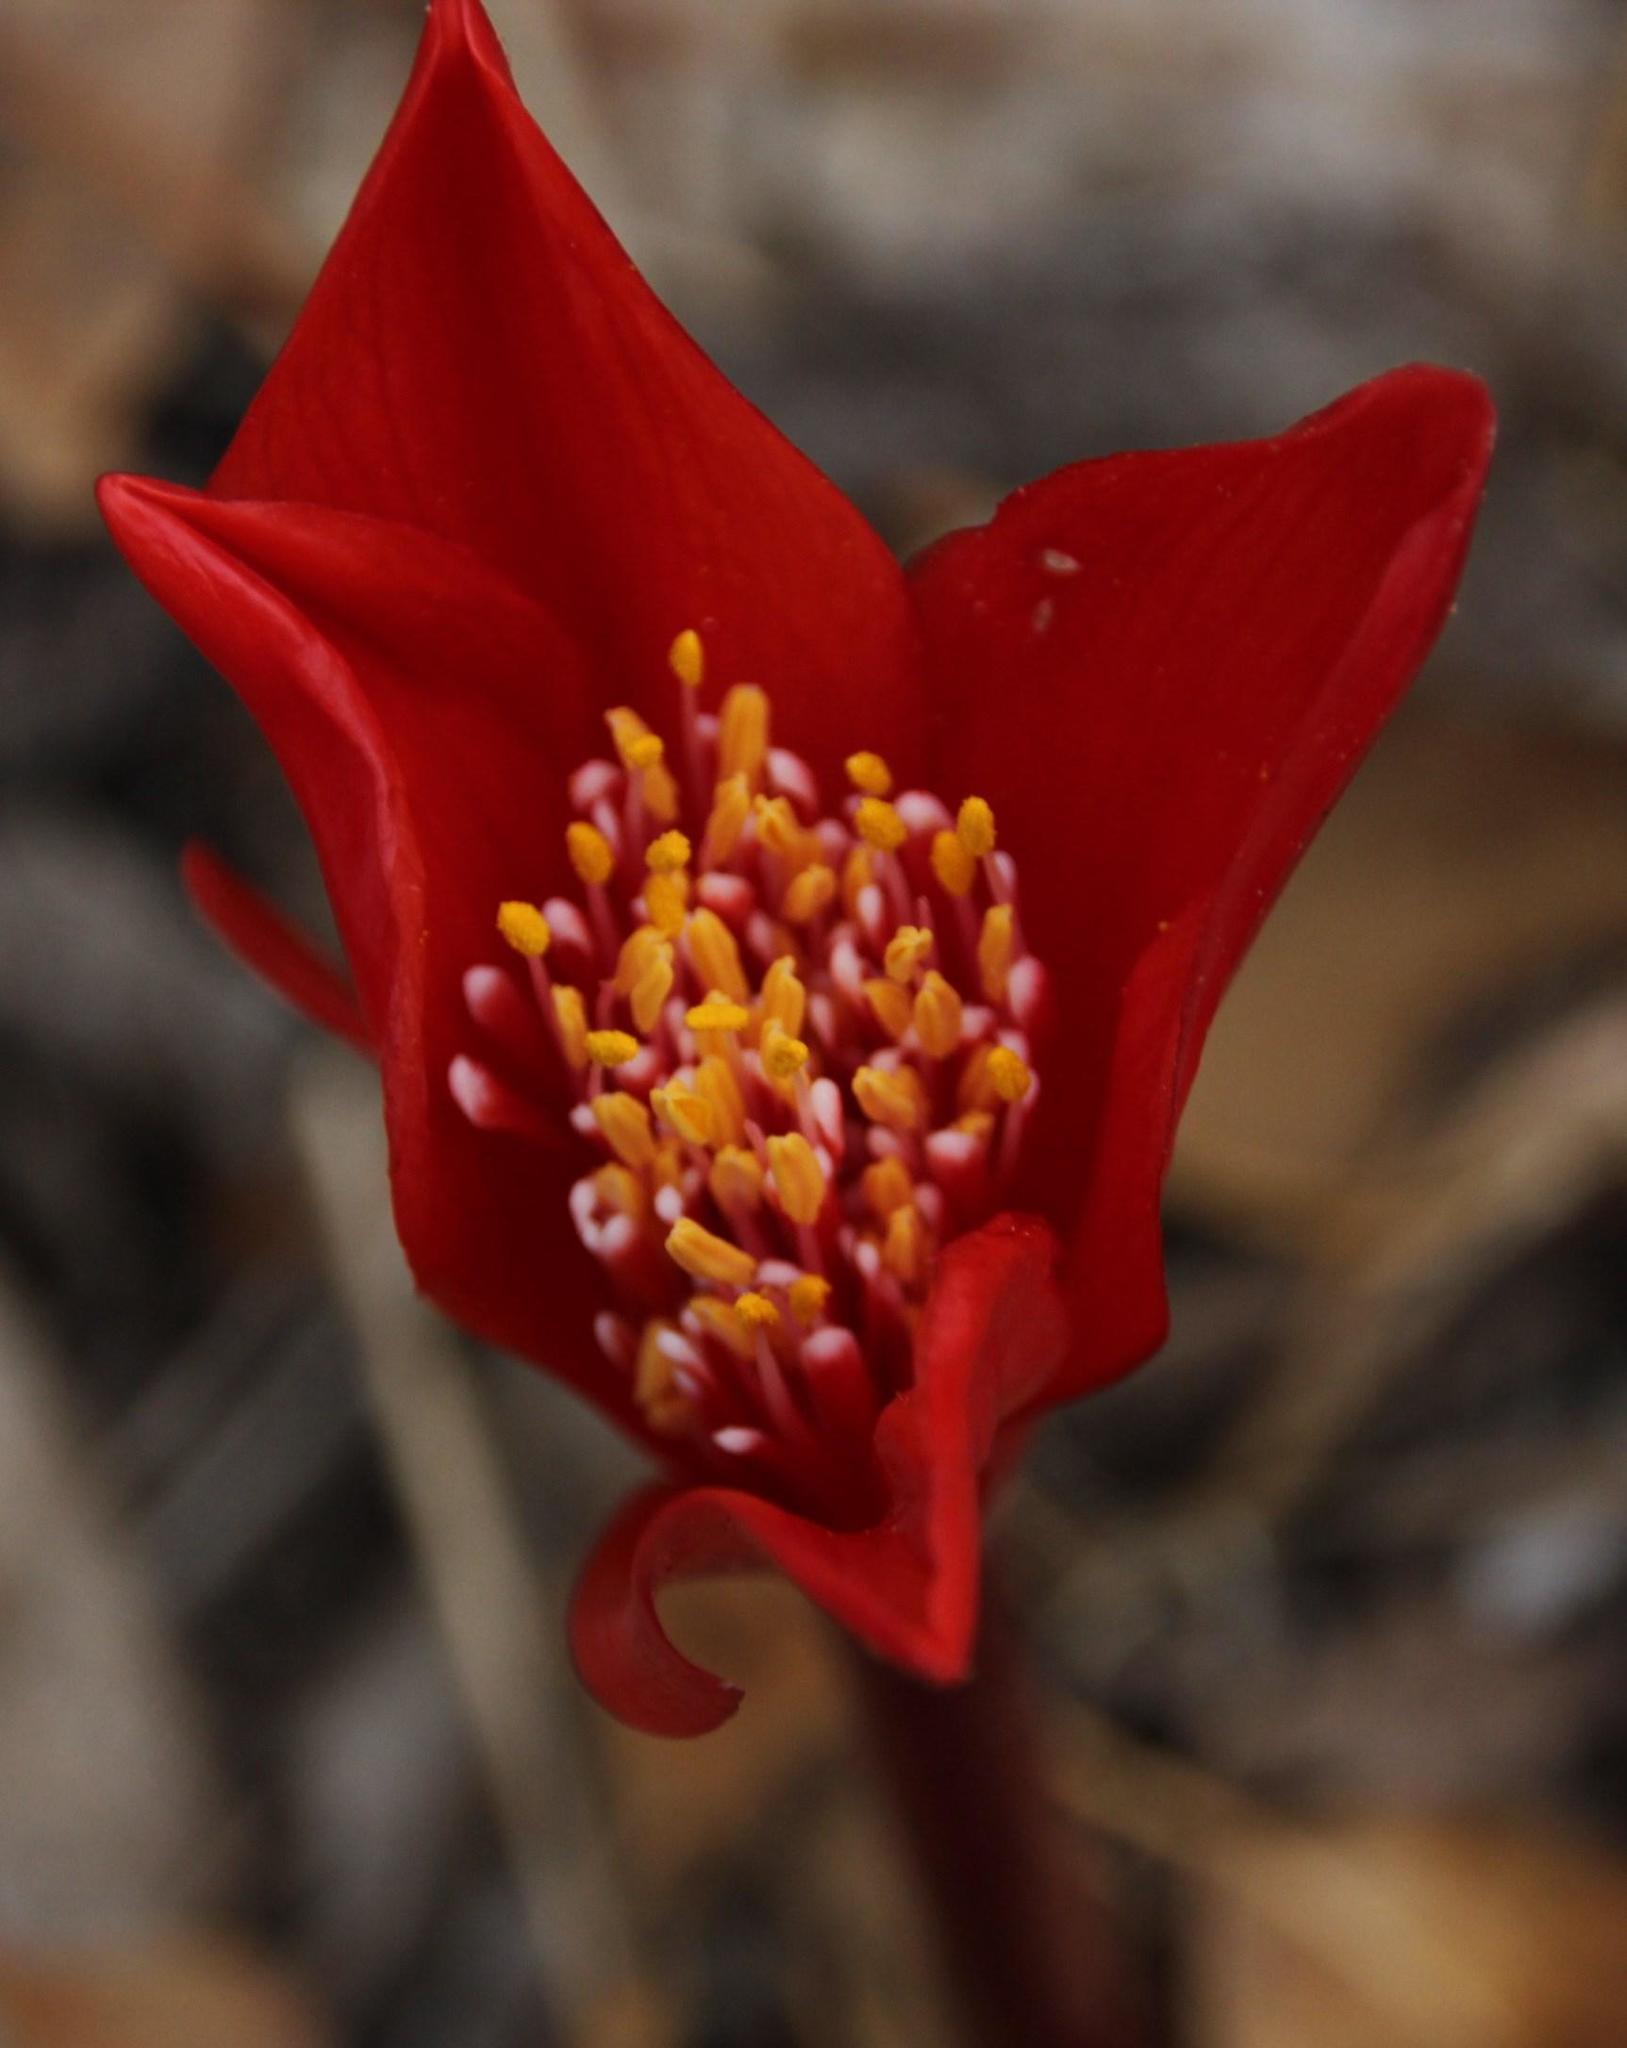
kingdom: Plantae
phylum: Tracheophyta
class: Liliopsida
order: Asparagales
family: Amaryllidaceae
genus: Haemanthus
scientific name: Haemanthus pubescens
